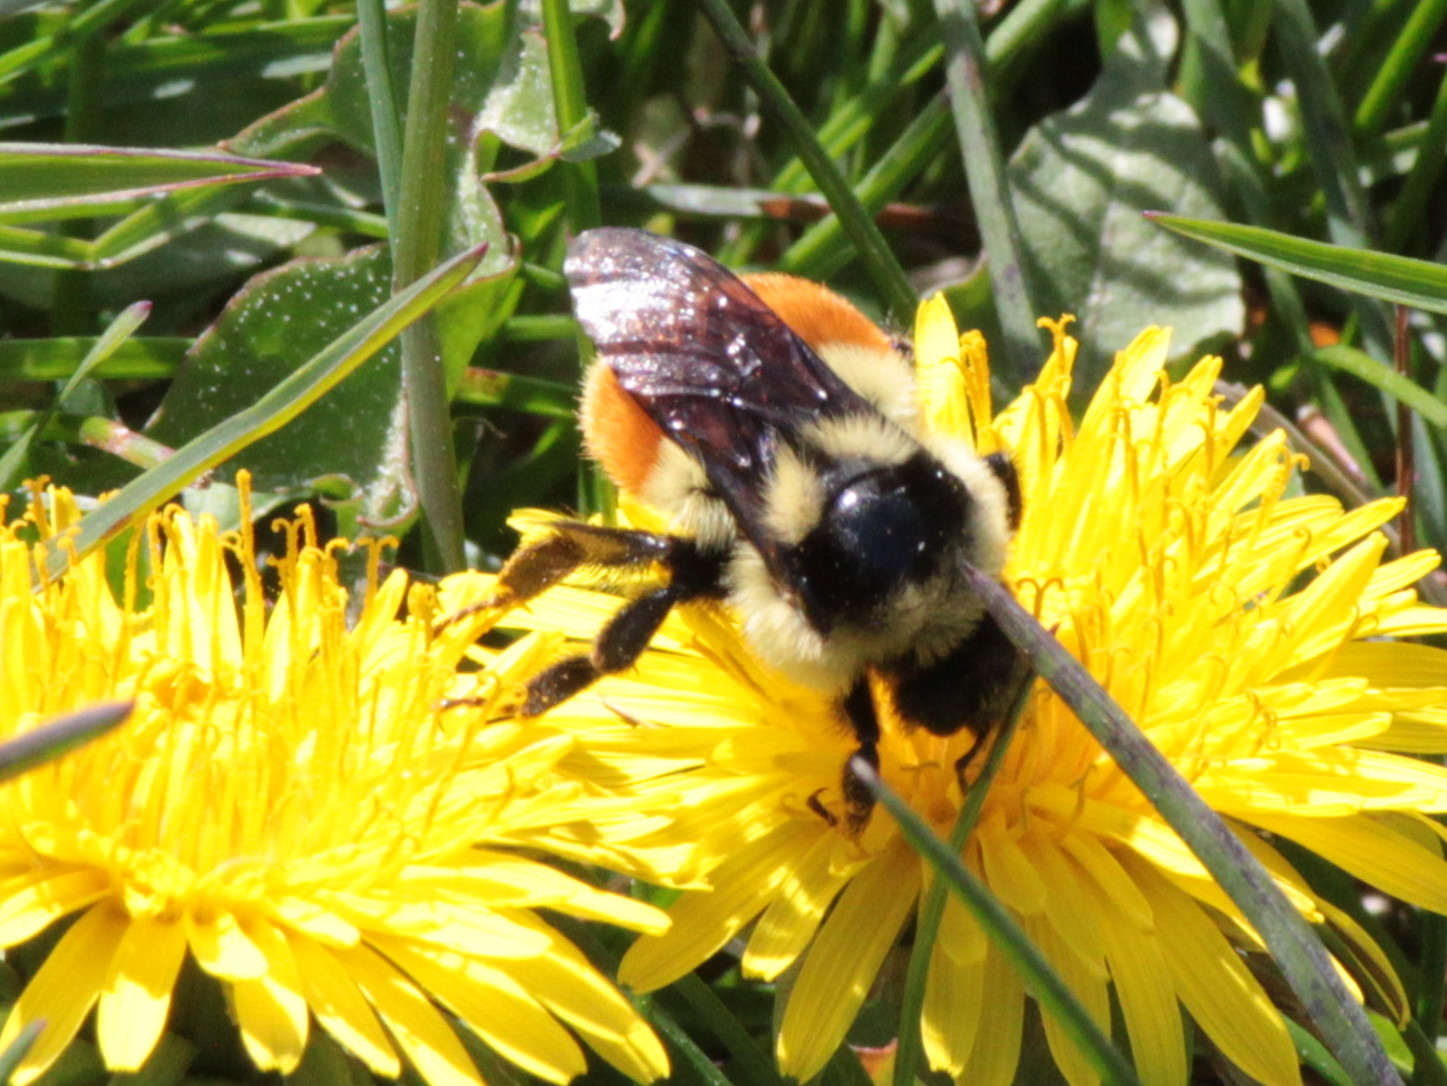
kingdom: Animalia
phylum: Arthropoda
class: Insecta
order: Hymenoptera
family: Apidae
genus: Bombus
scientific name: Bombus ternarius
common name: Tri-colored bumble bee
